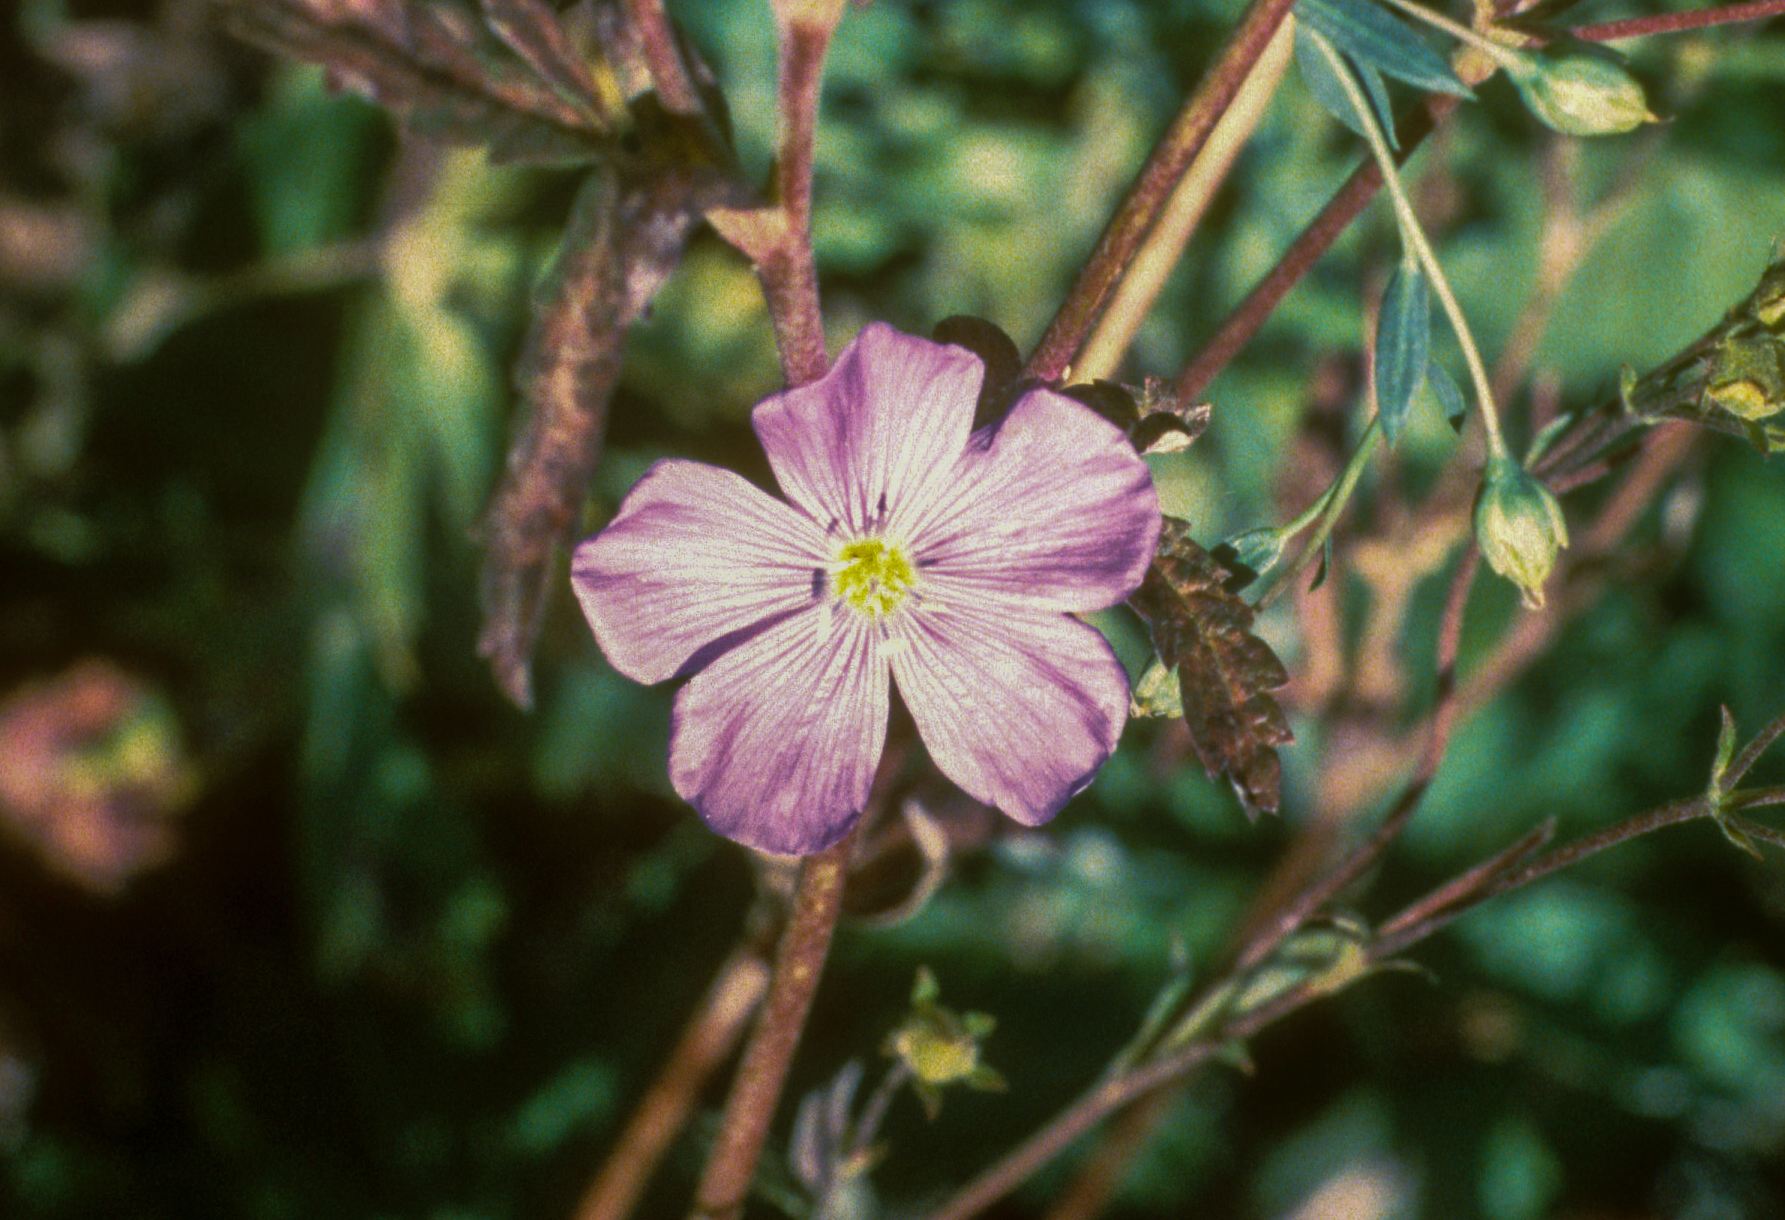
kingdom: Plantae
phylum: Tracheophyta
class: Magnoliopsida
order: Malpighiales
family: Linaceae
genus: Linum
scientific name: Linum lewisii
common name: Prairie flax
